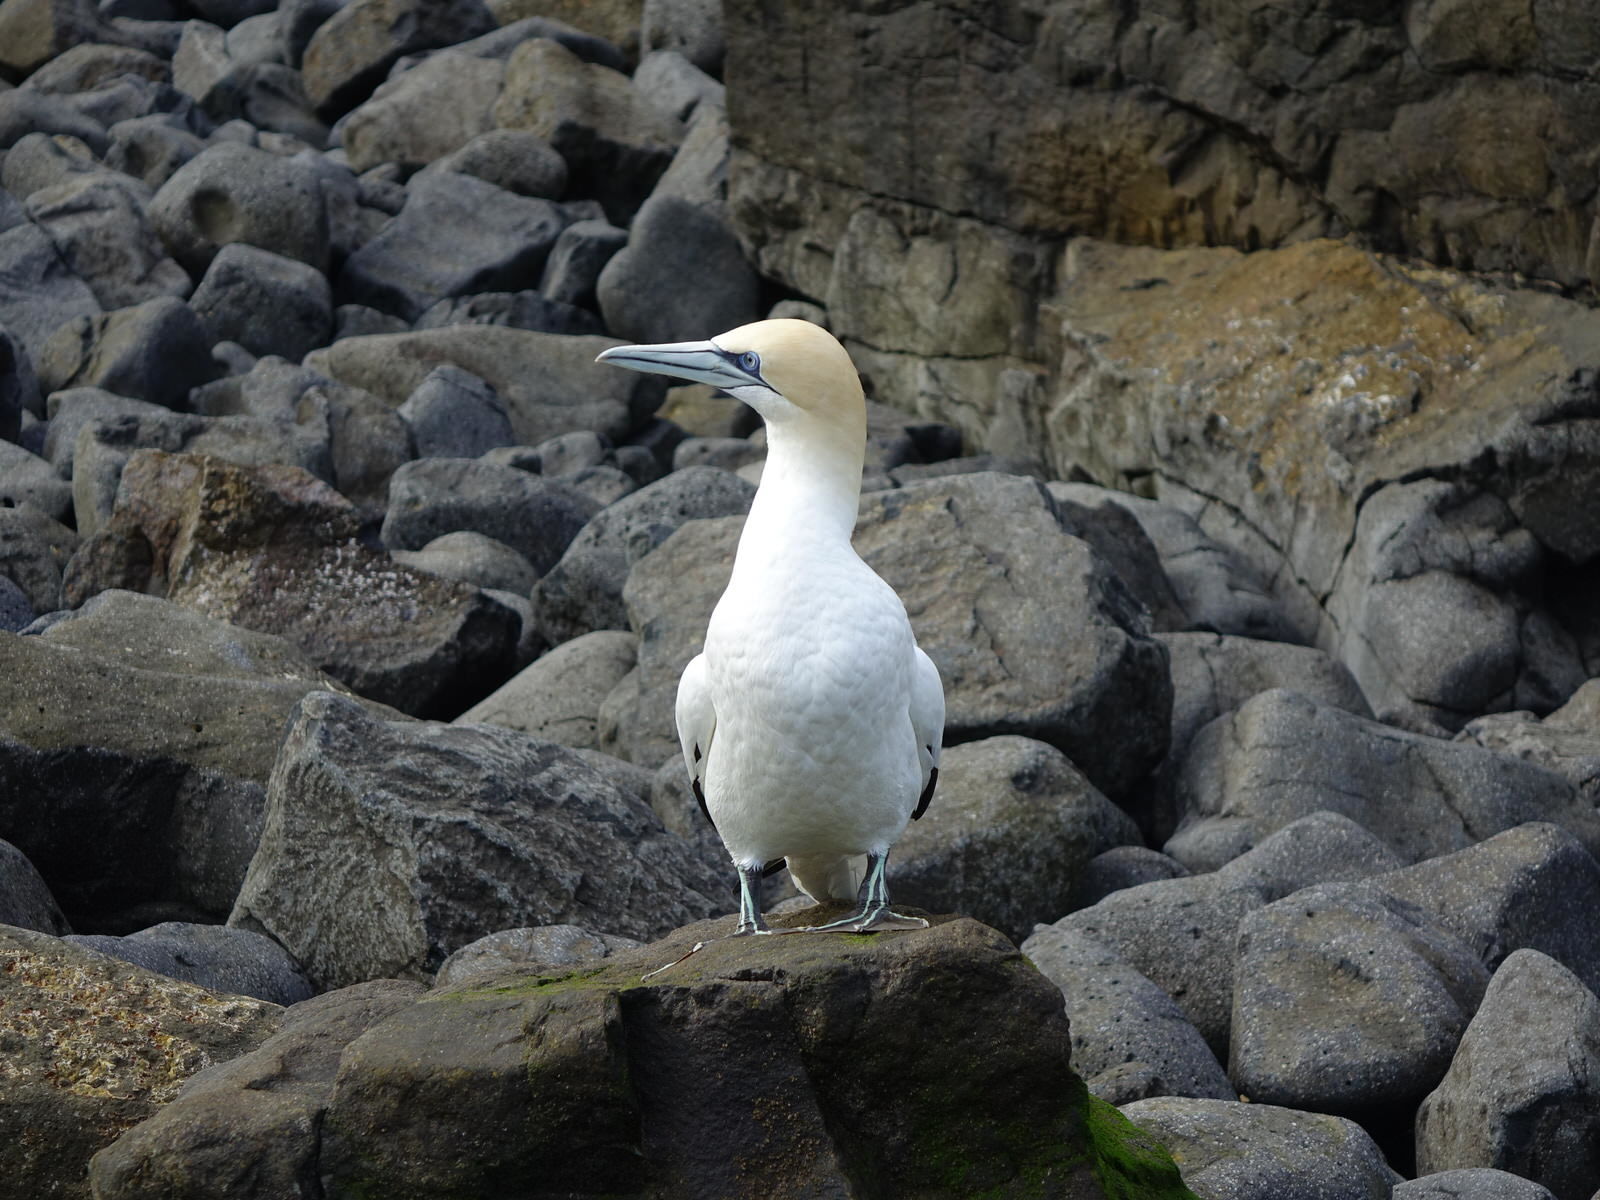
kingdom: Animalia
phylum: Chordata
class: Aves
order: Suliformes
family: Sulidae
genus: Morus
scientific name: Morus serrator
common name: Australasian gannet
